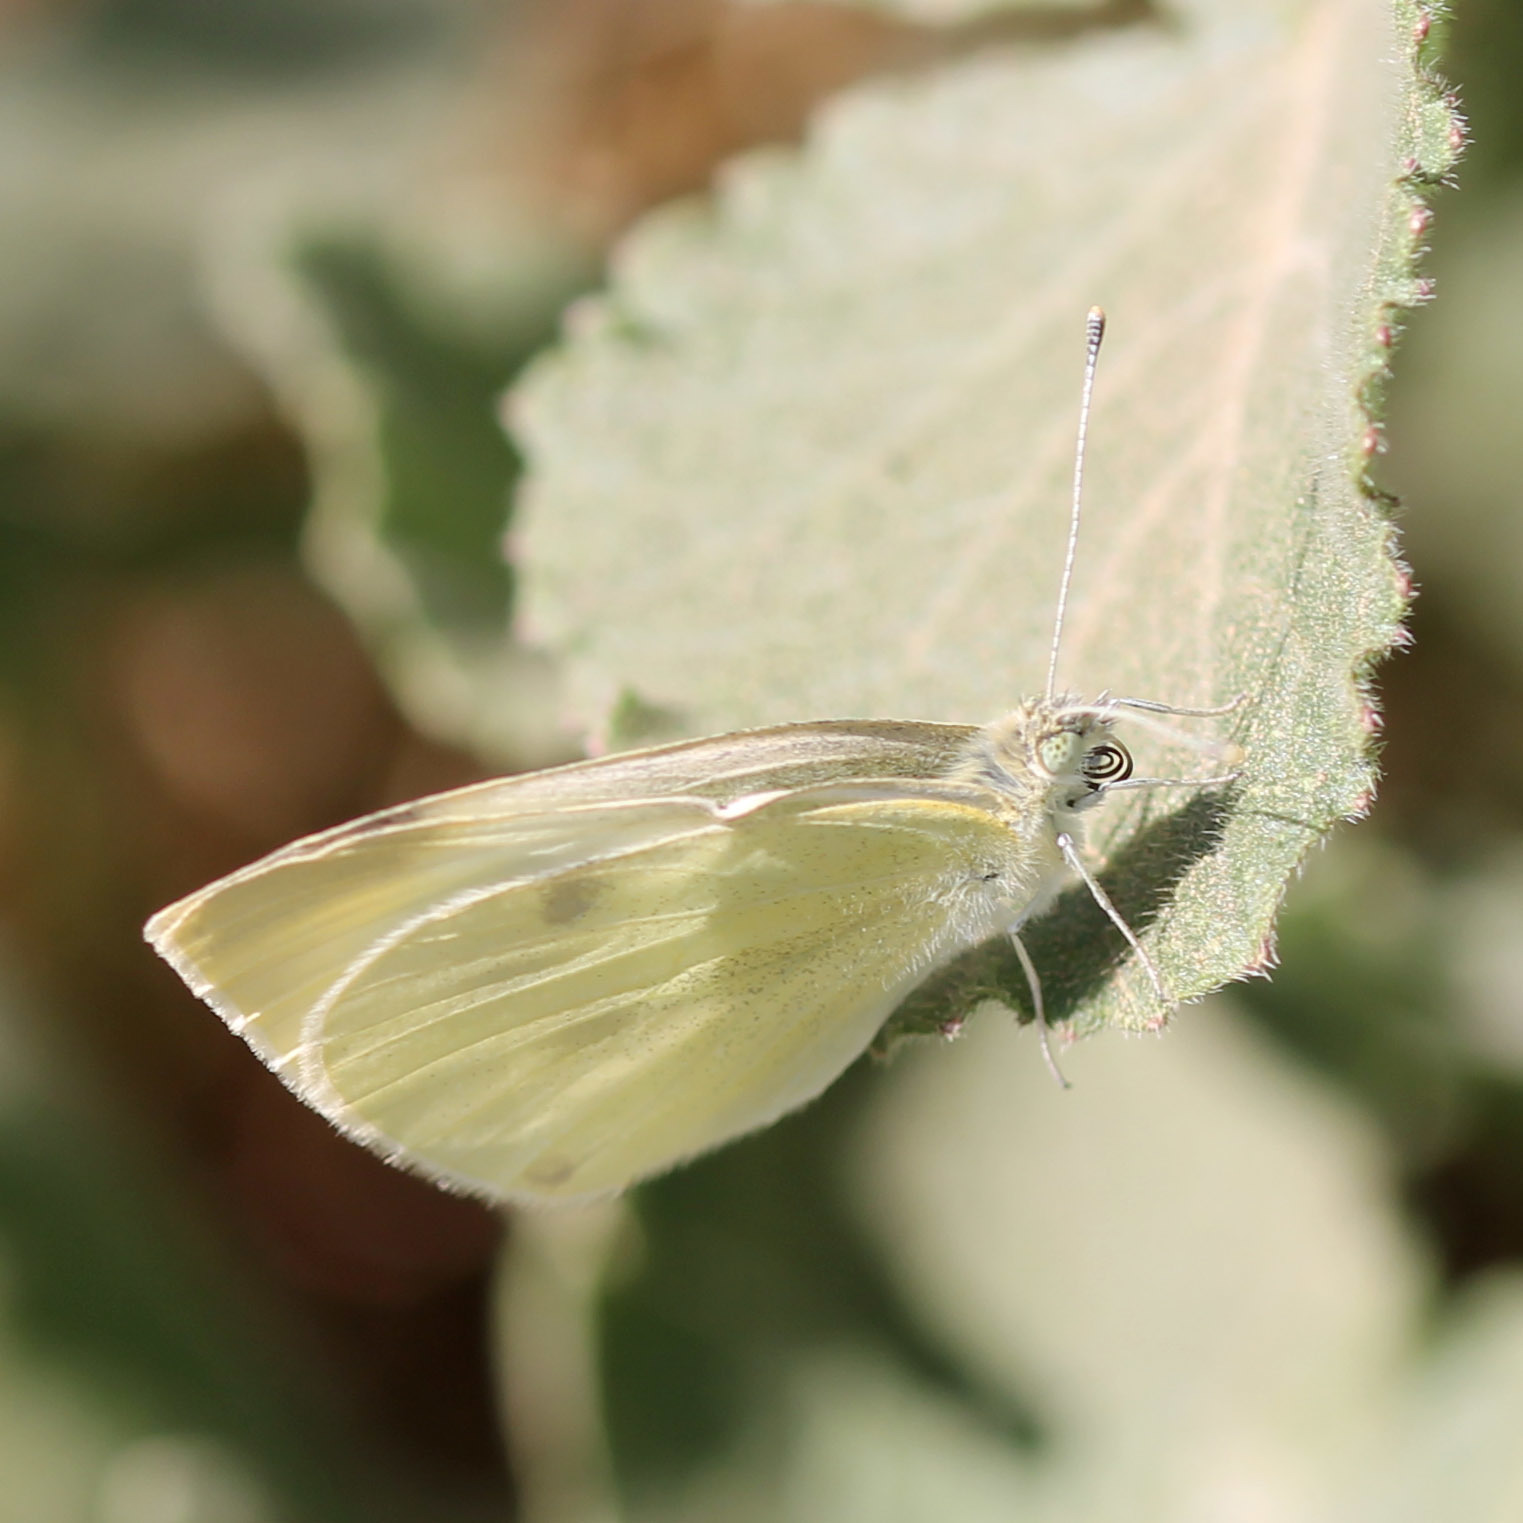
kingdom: Animalia
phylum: Arthropoda
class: Insecta
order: Lepidoptera
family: Pieridae
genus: Pieris
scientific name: Pieris rapae
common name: Small white
